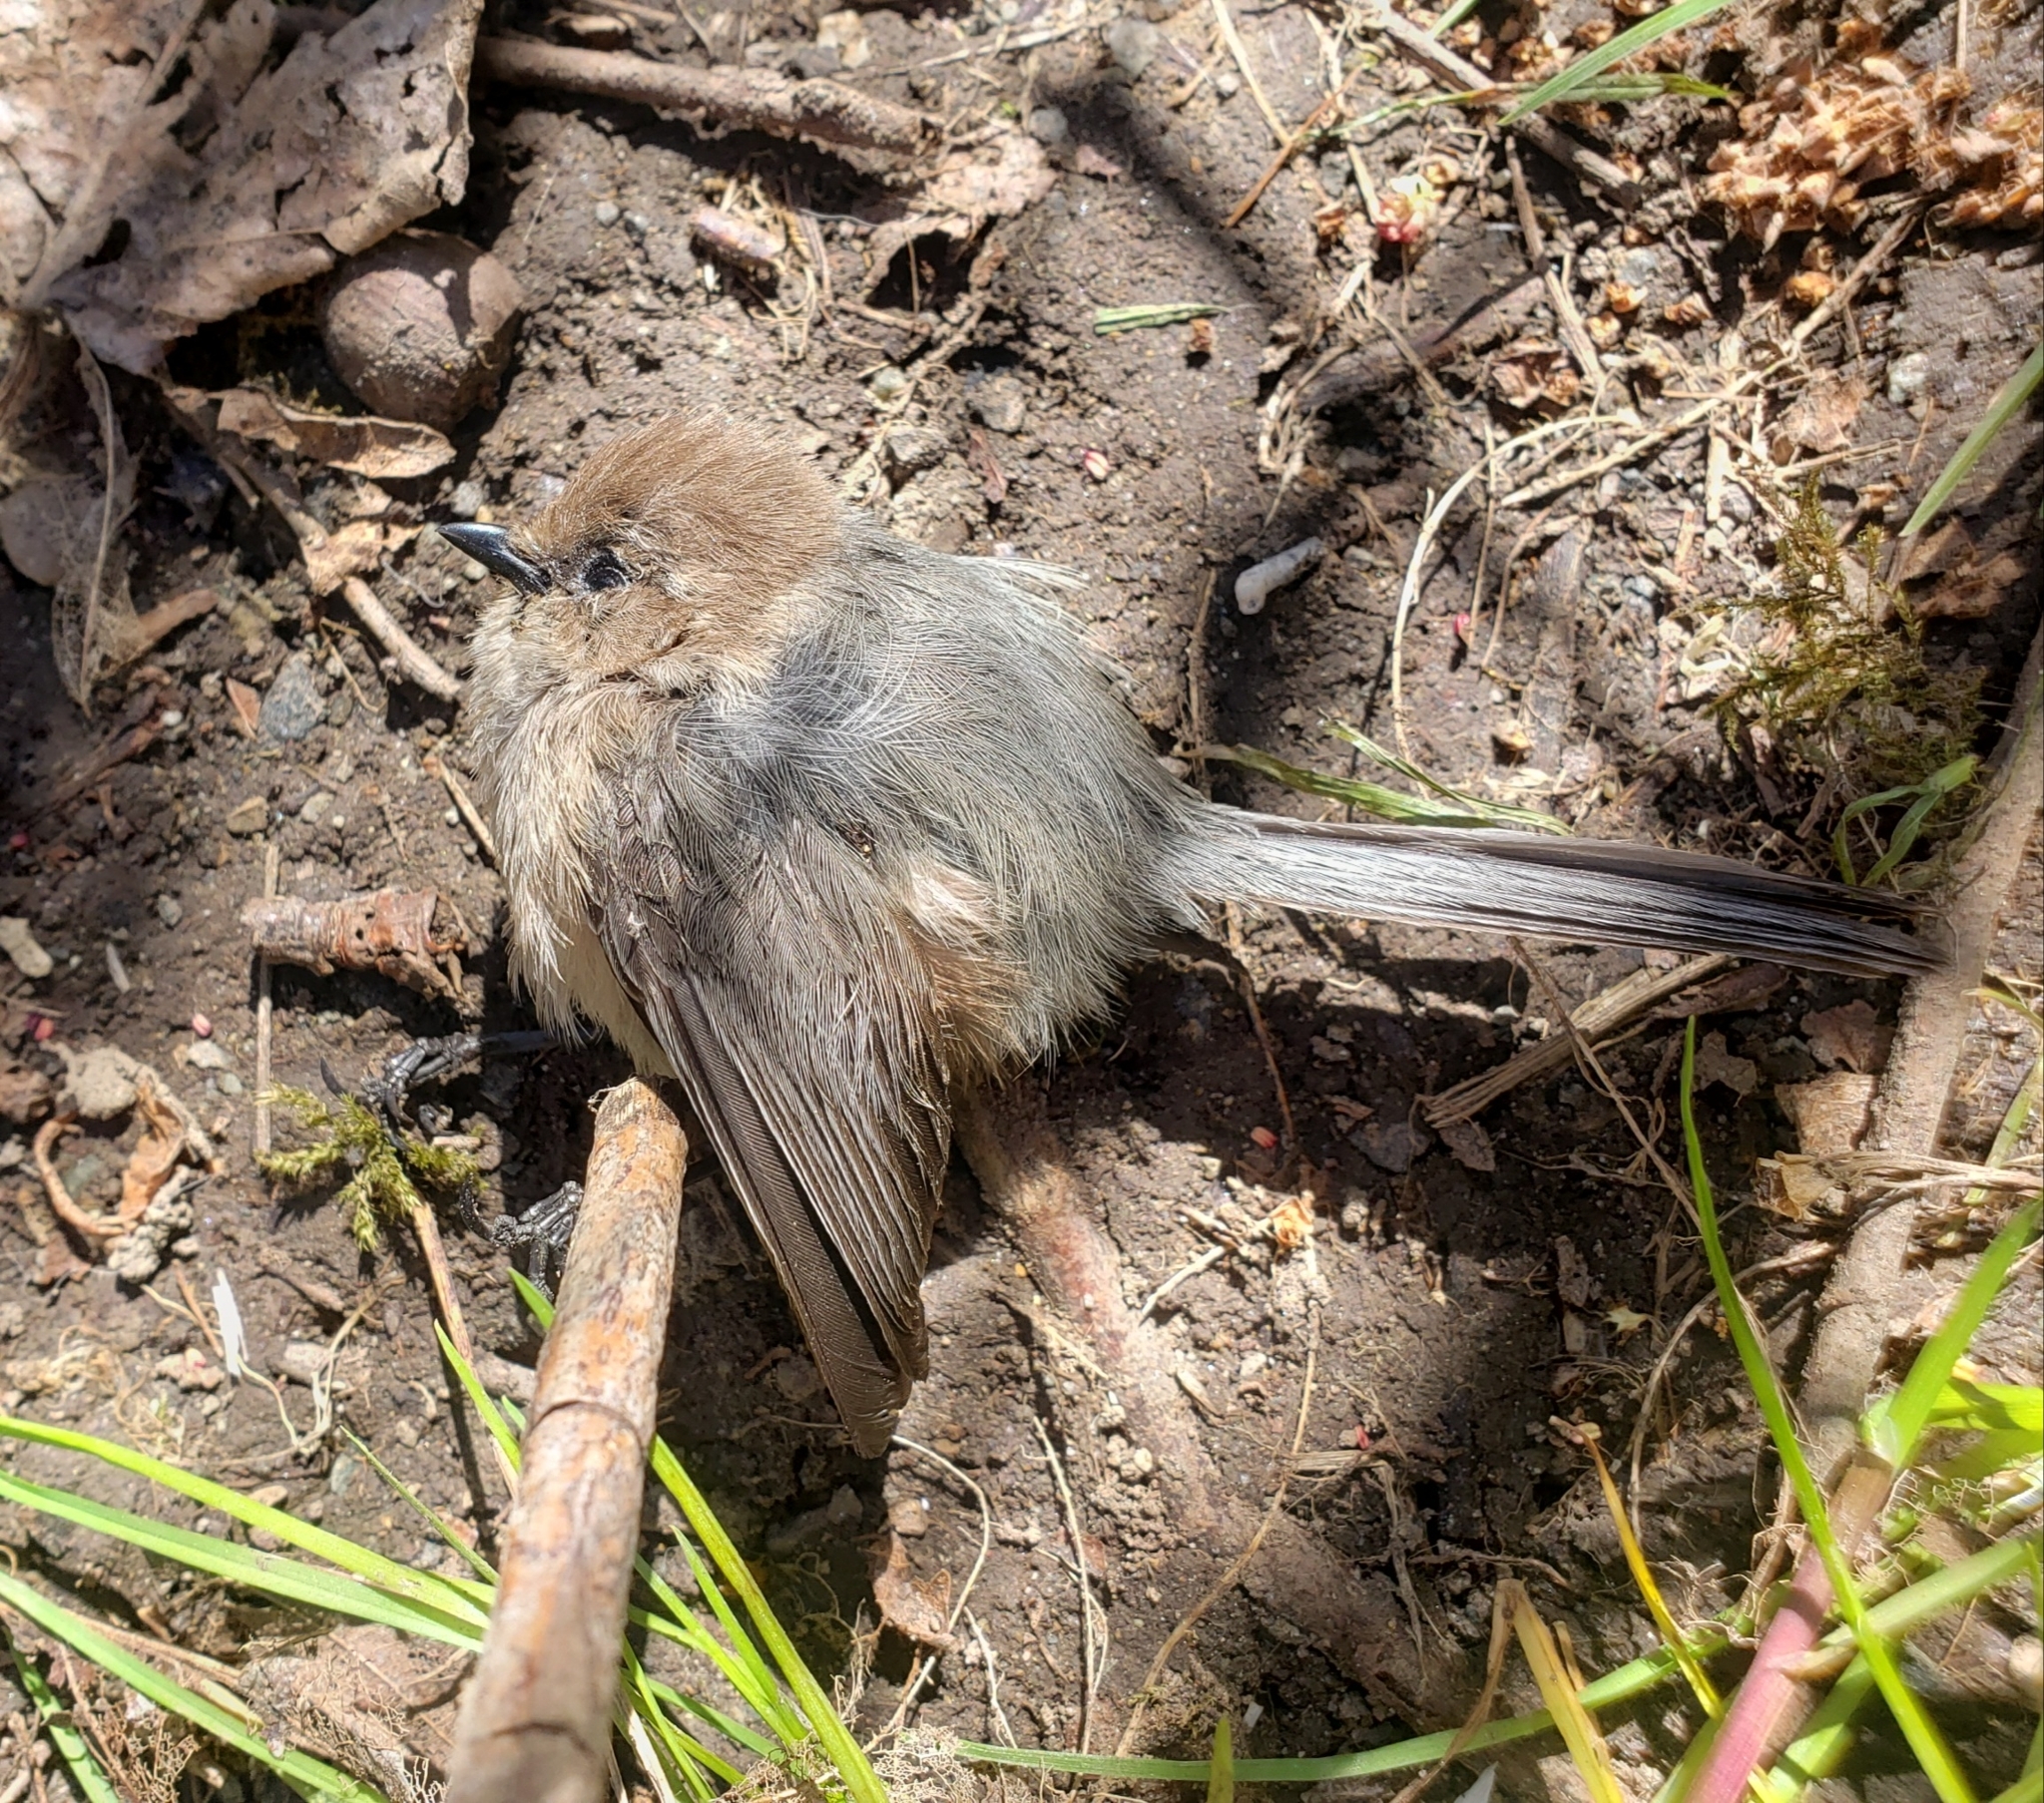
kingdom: Animalia
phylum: Chordata
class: Aves
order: Passeriformes
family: Aegithalidae
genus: Psaltriparus
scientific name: Psaltriparus minimus
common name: American bushtit
